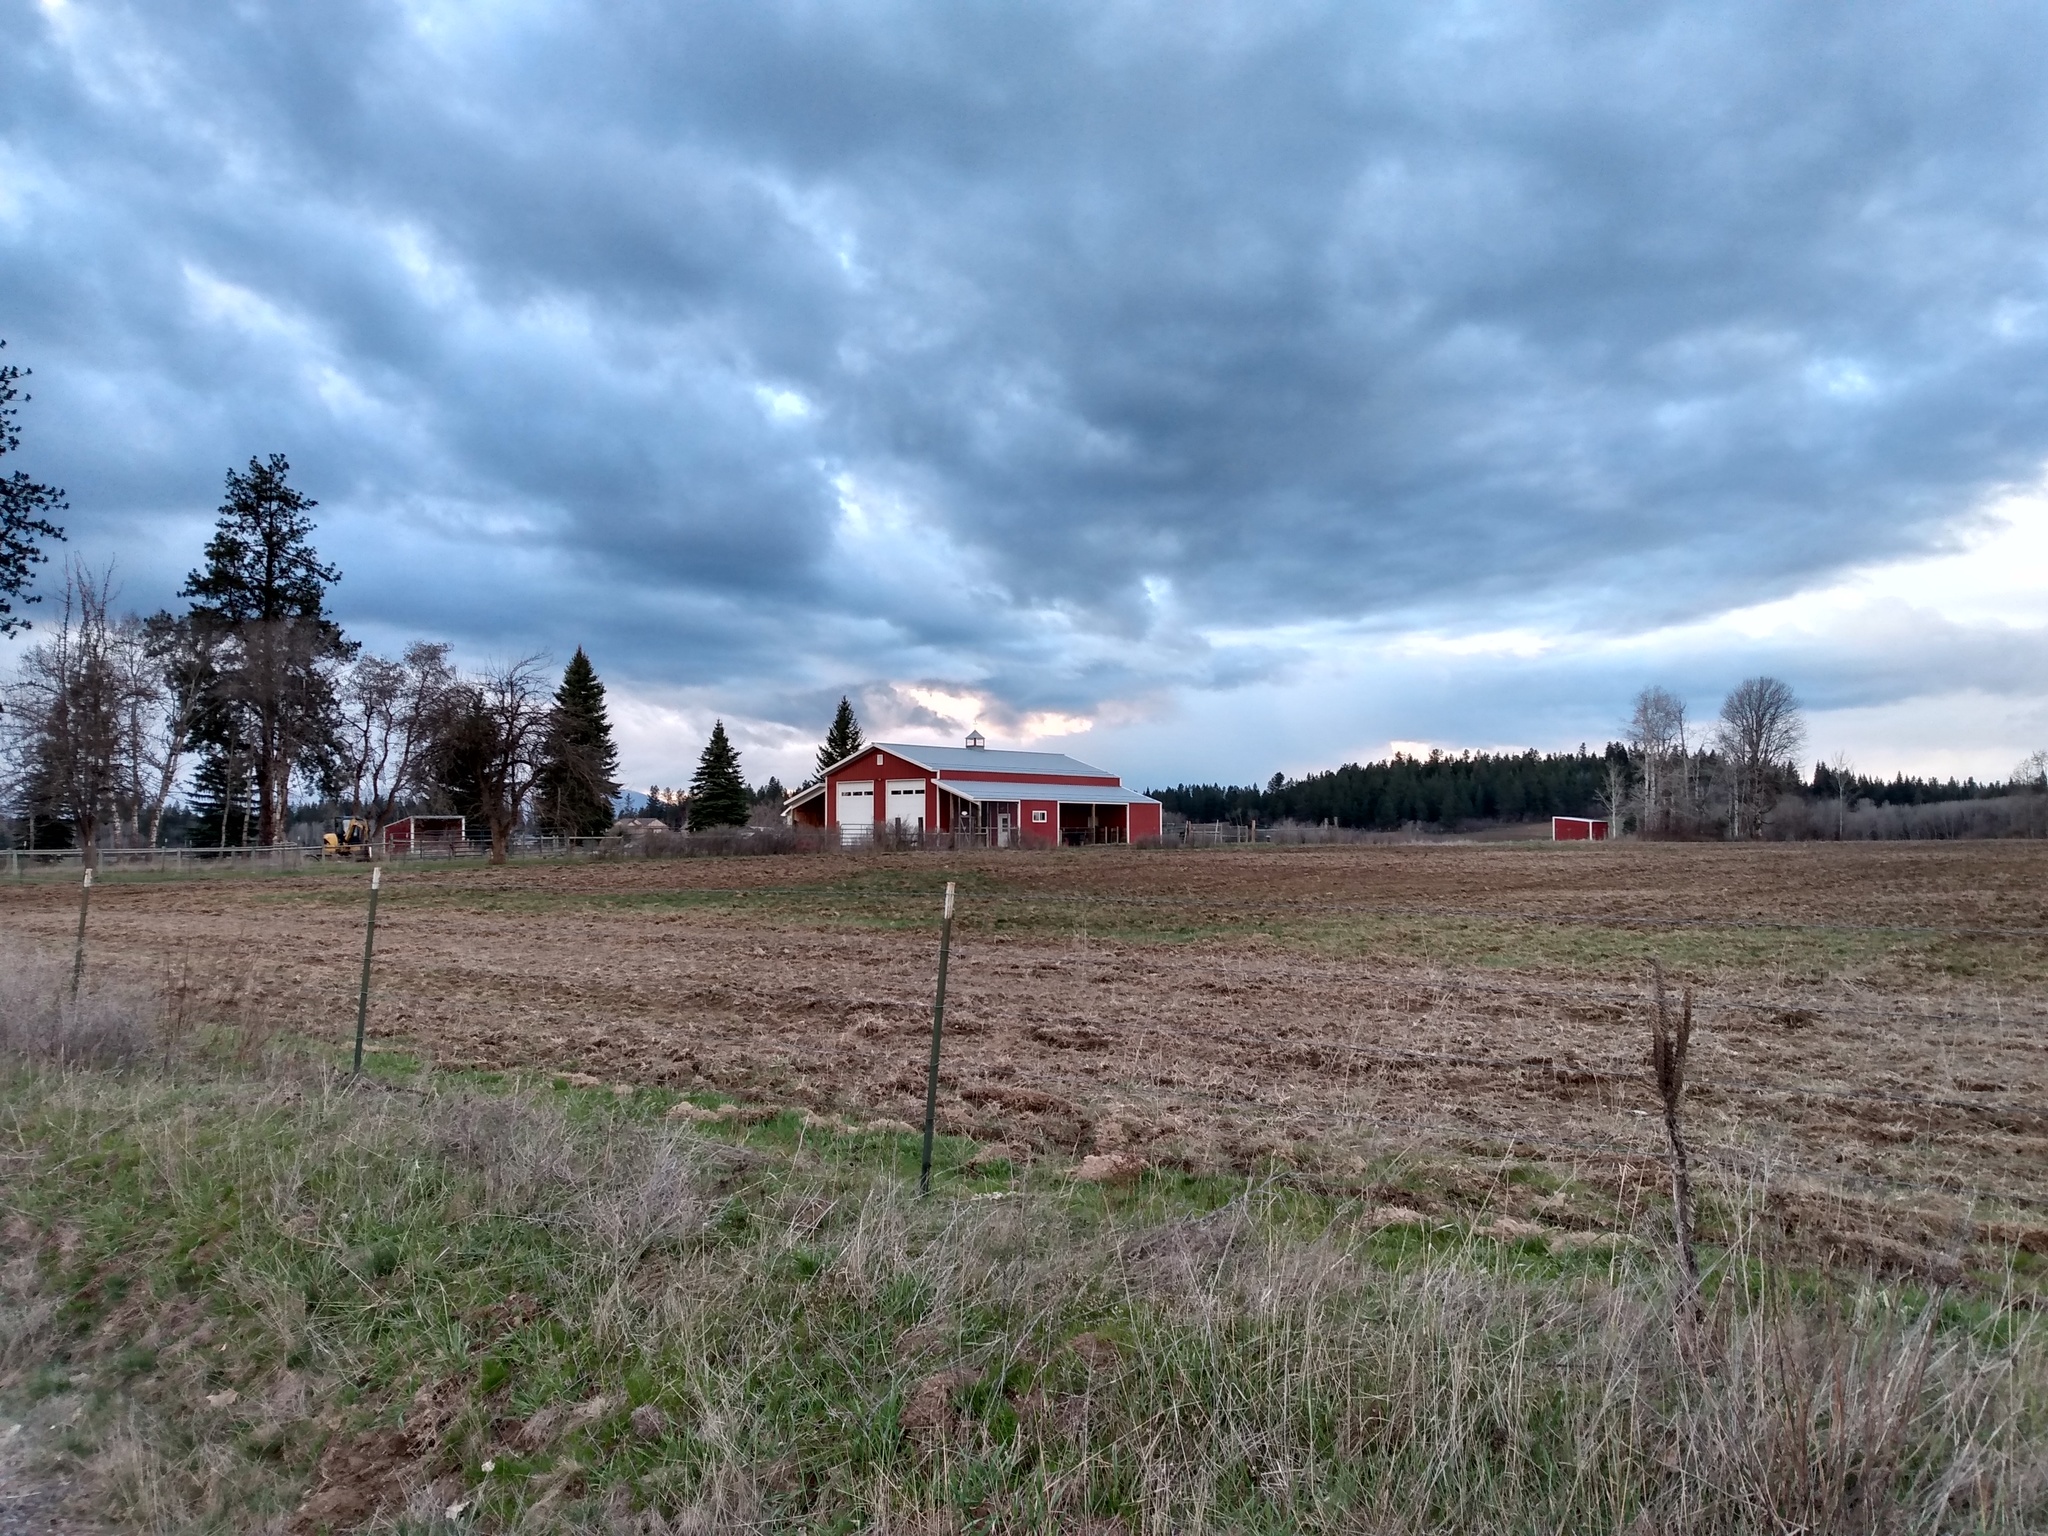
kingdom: Plantae
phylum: Tracheophyta
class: Magnoliopsida
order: Lamiales
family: Scrophulariaceae
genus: Verbascum
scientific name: Verbascum thapsus
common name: Common mullein
